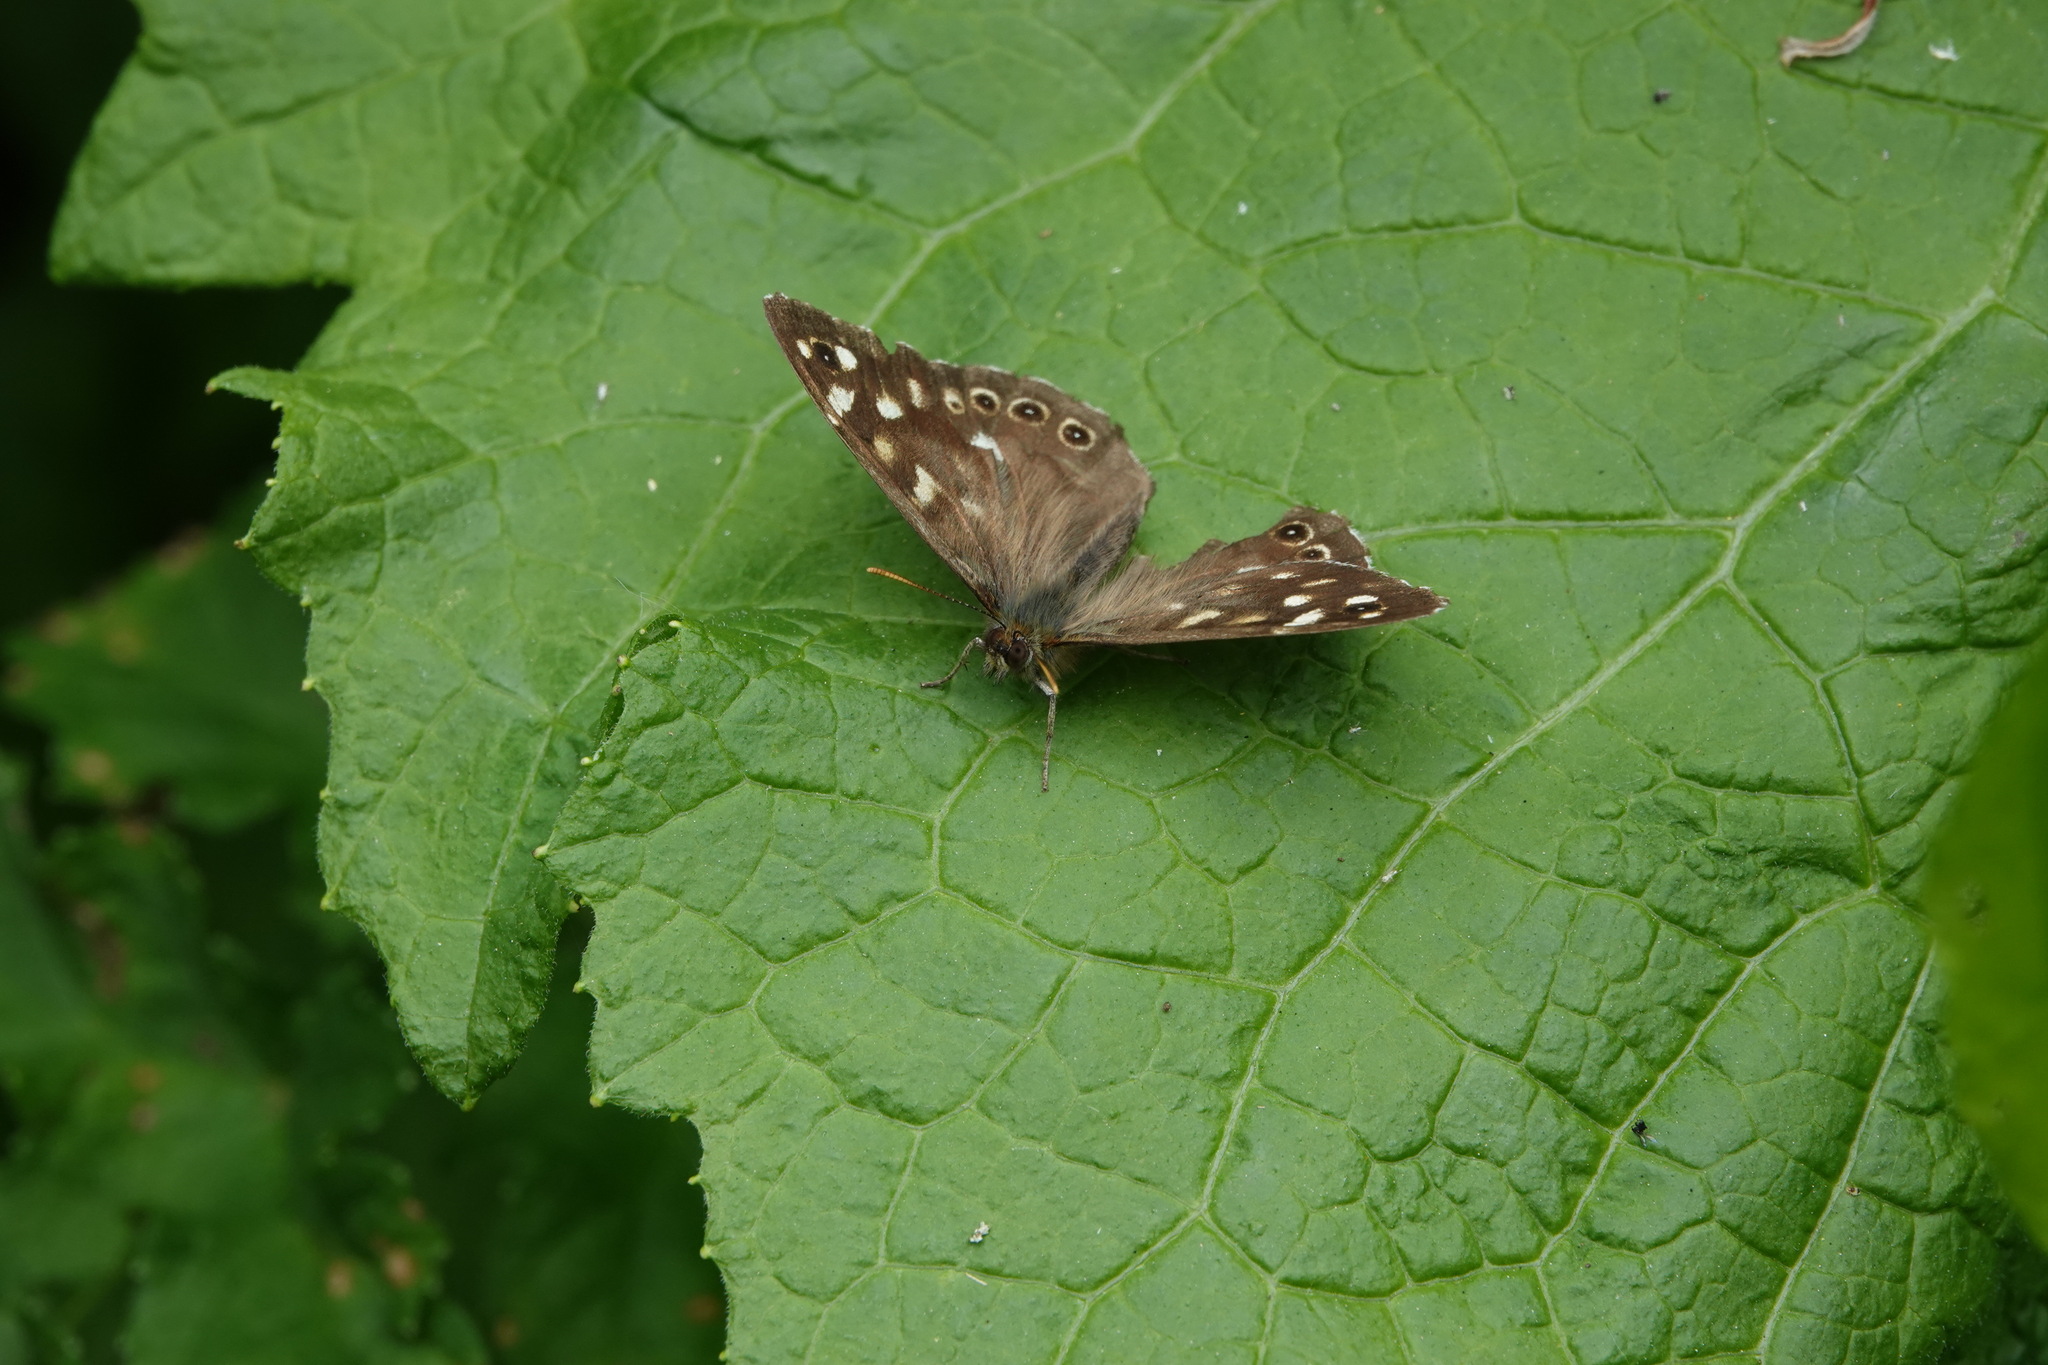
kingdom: Animalia
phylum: Arthropoda
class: Insecta
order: Lepidoptera
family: Nymphalidae
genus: Pararge
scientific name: Pararge aegeria
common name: Speckled wood
